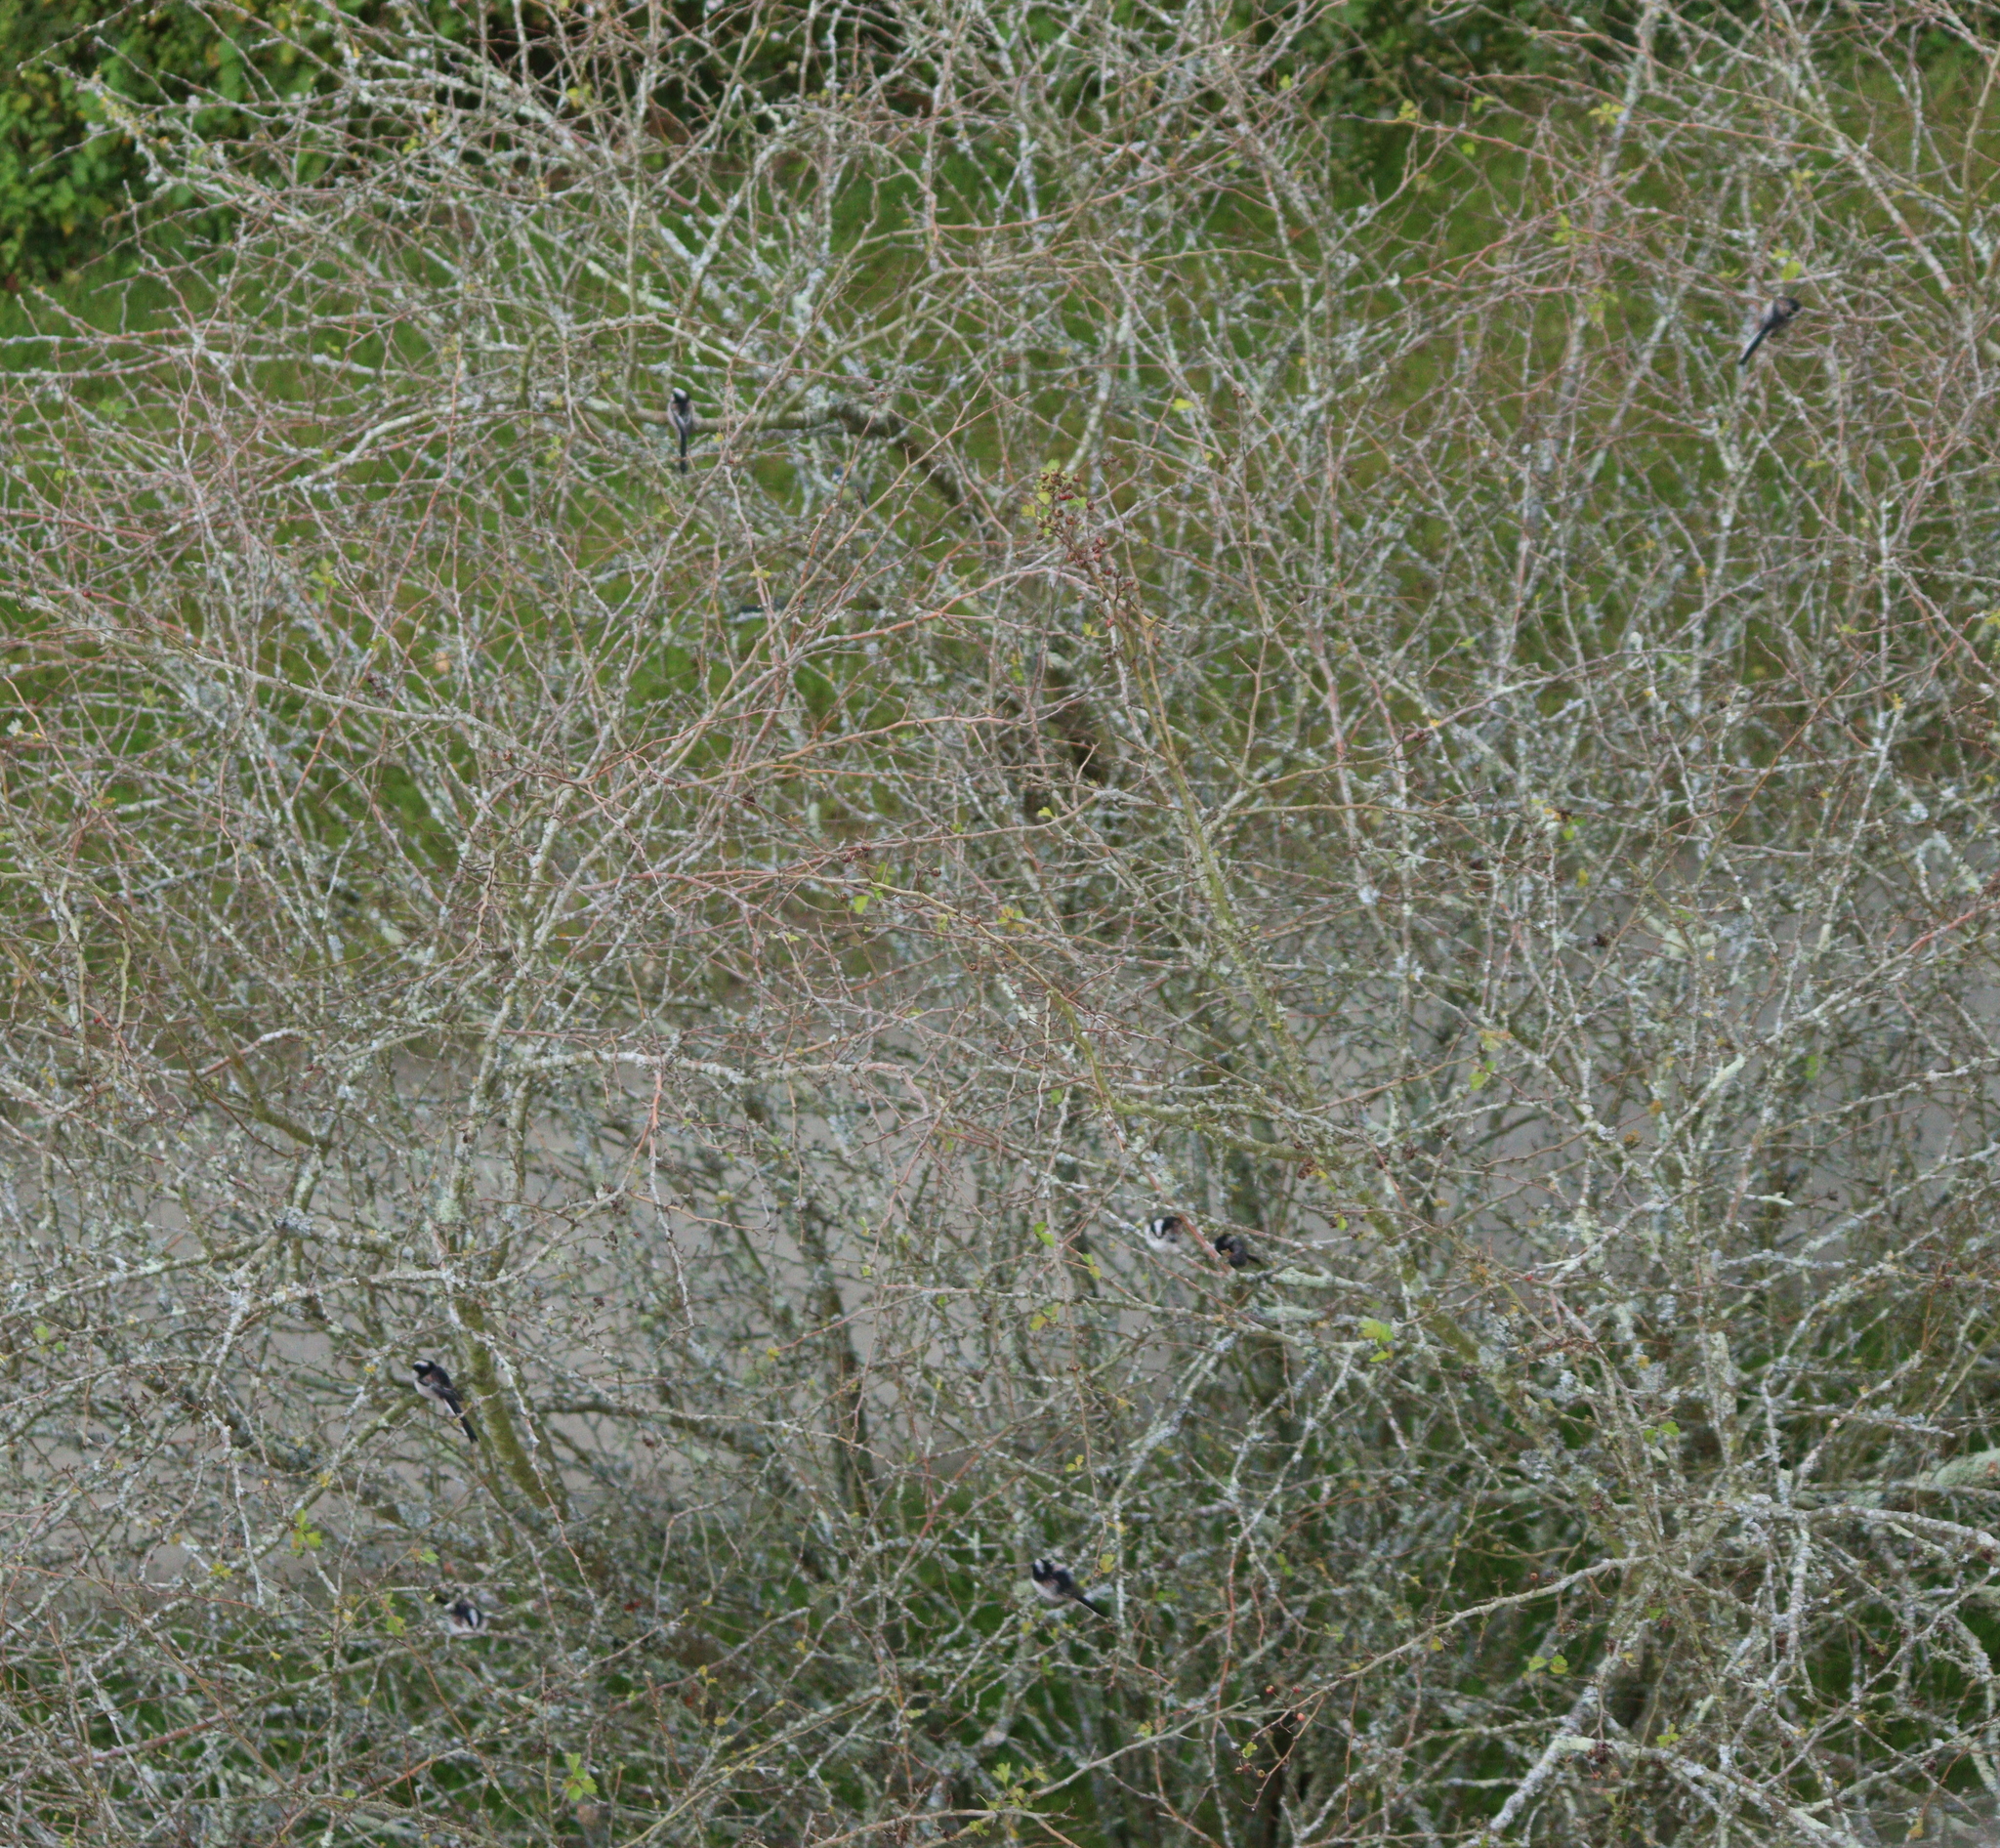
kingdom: Animalia
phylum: Chordata
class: Aves
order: Passeriformes
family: Aegithalidae
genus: Aegithalos
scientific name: Aegithalos caudatus
